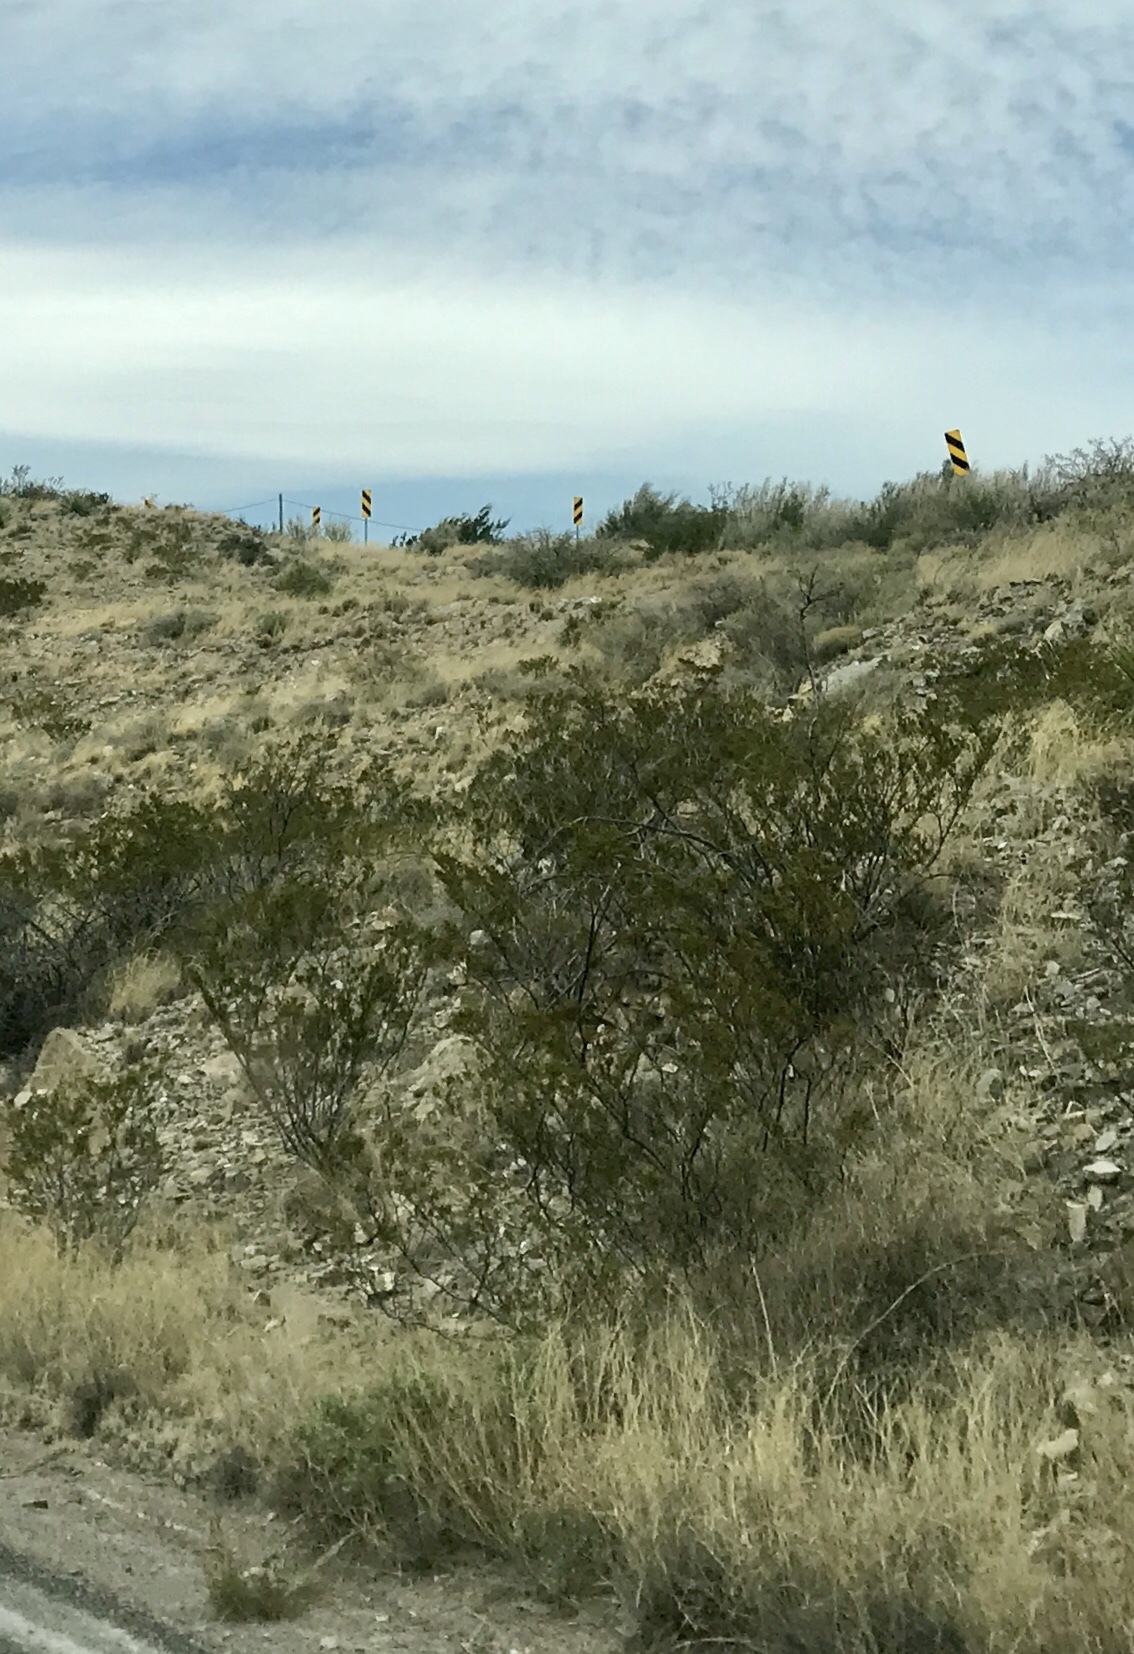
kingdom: Plantae
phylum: Tracheophyta
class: Magnoliopsida
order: Zygophyllales
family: Zygophyllaceae
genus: Larrea
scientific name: Larrea tridentata
